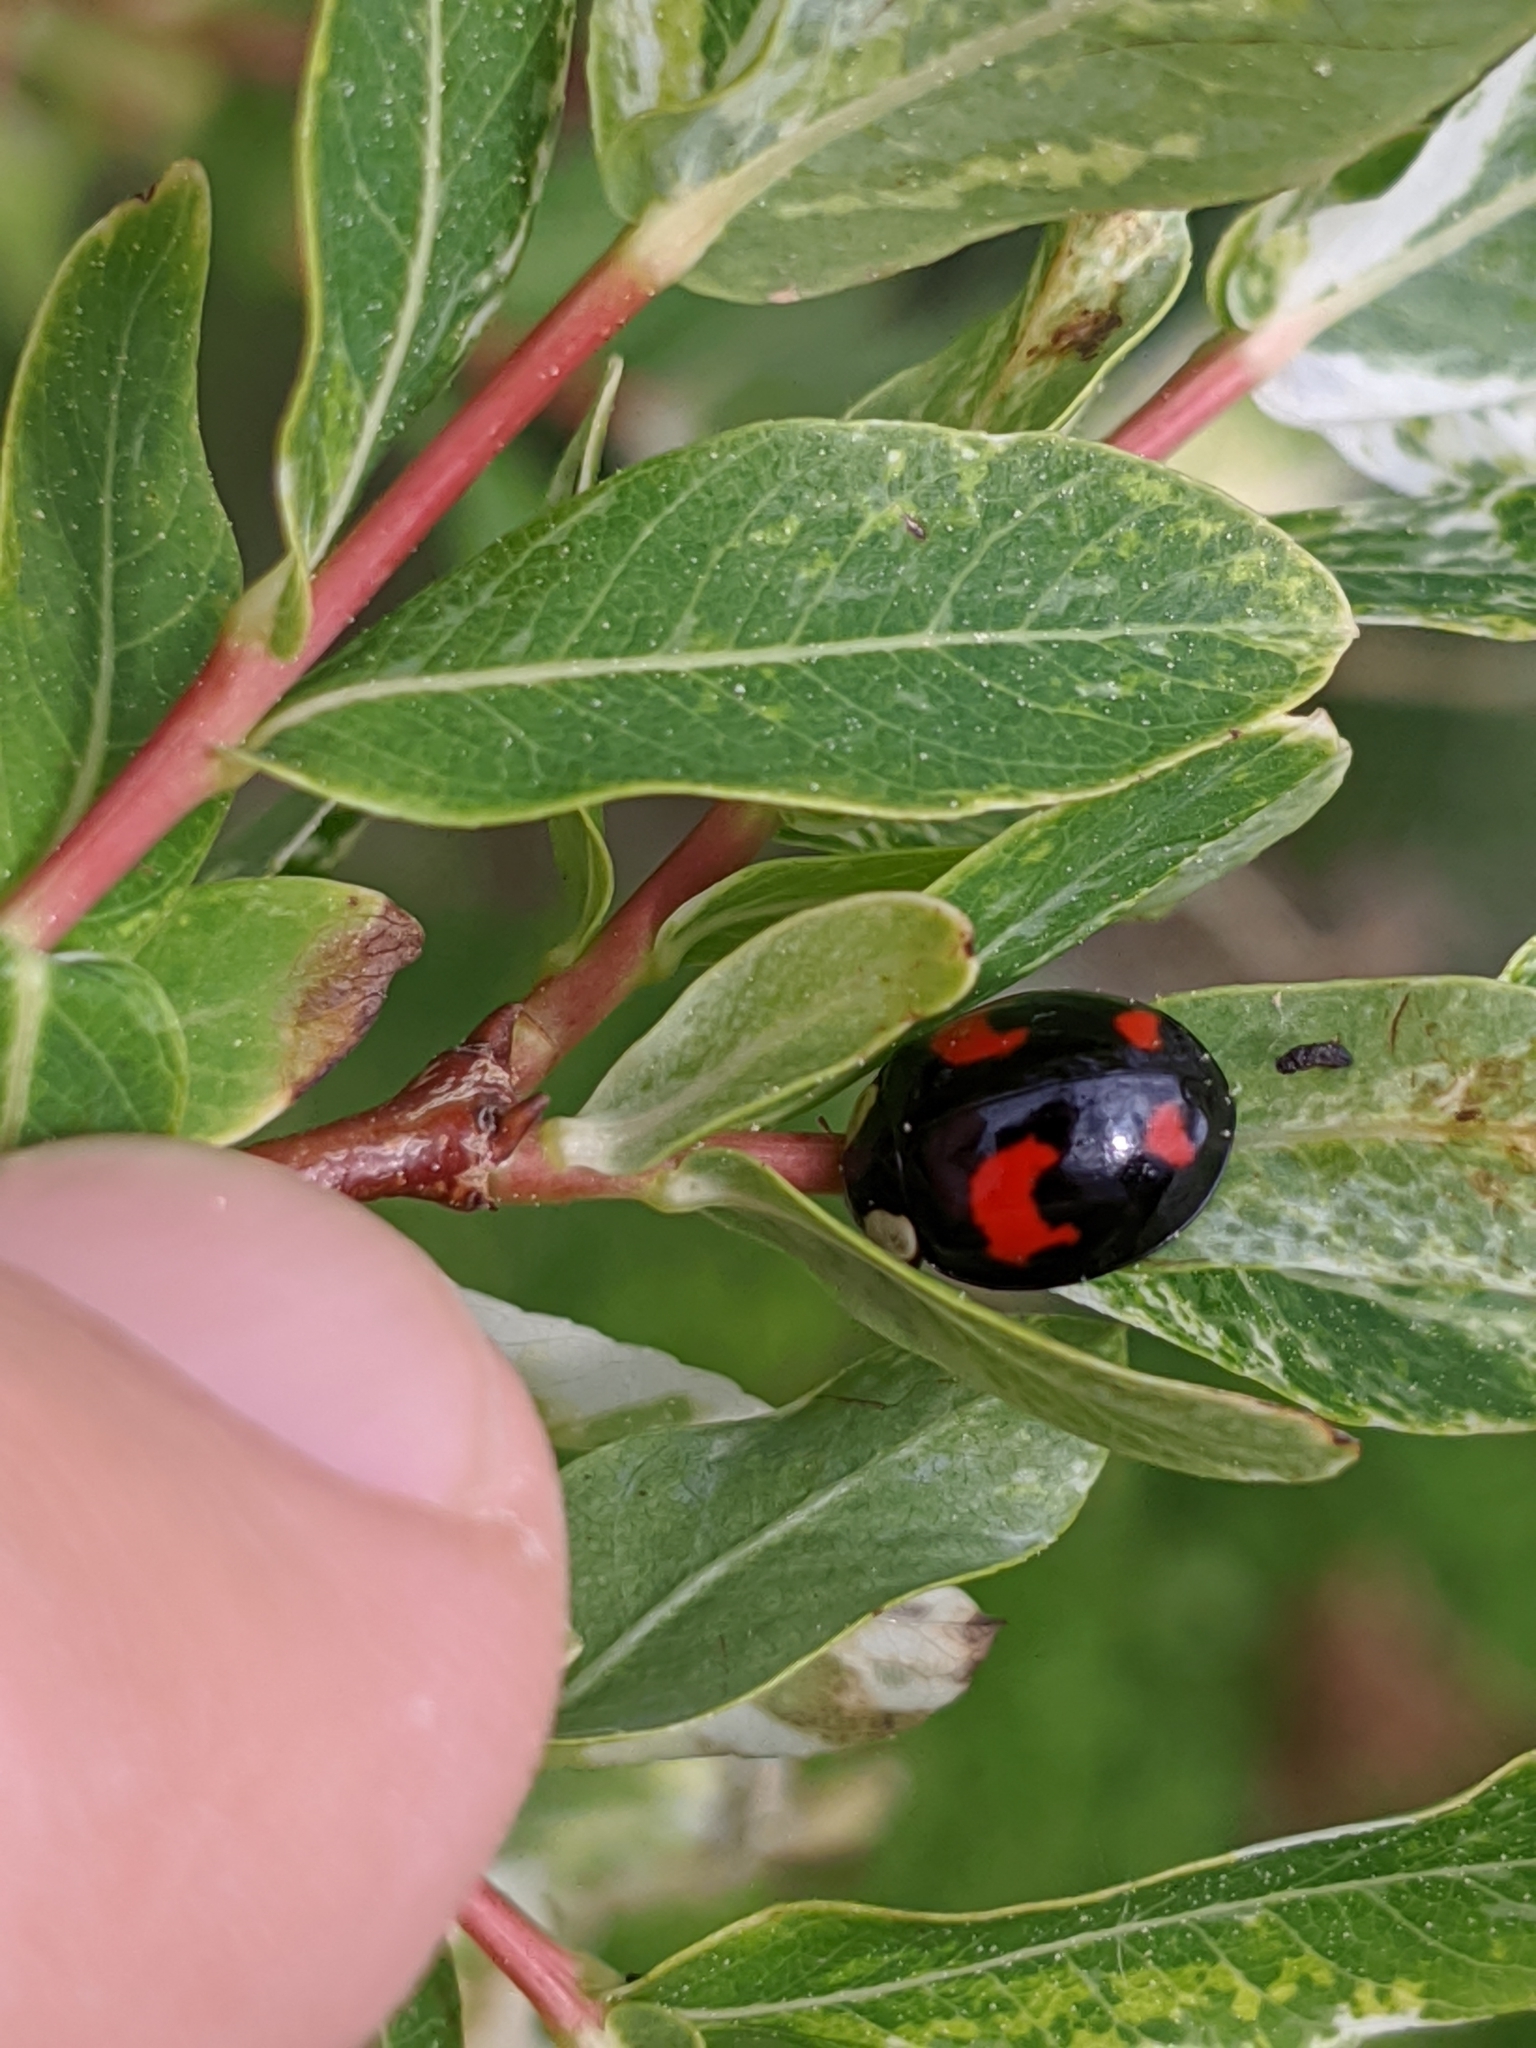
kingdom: Animalia
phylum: Arthropoda
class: Insecta
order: Coleoptera
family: Coccinellidae
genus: Harmonia
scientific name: Harmonia axyridis
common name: Harlequin ladybird
